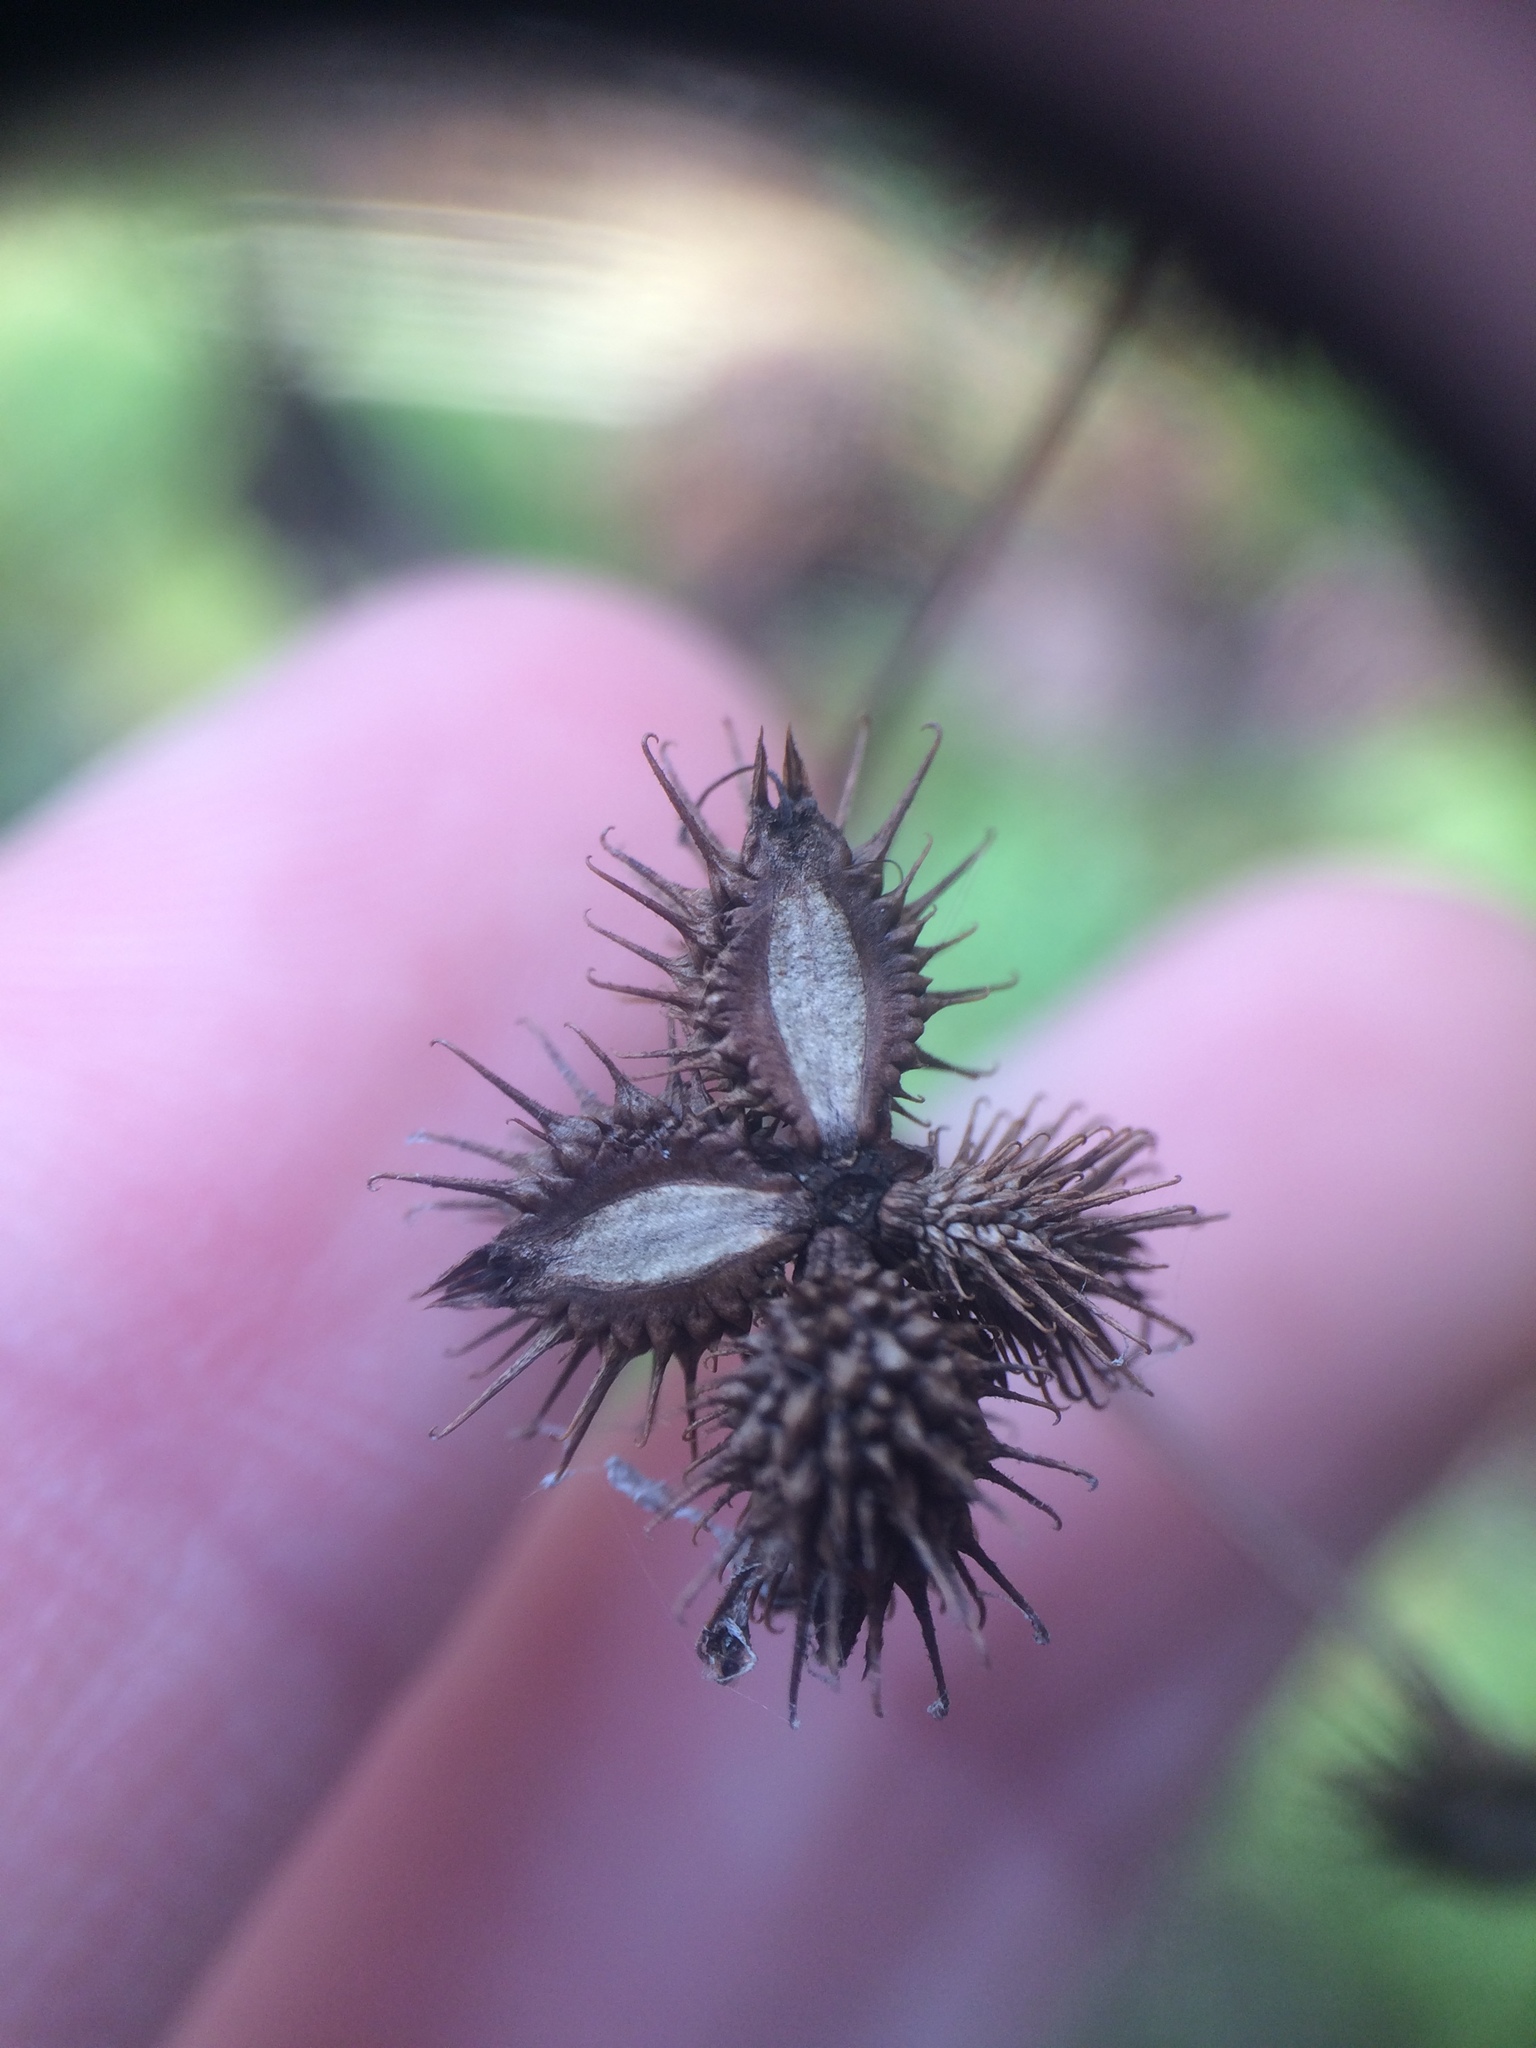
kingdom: Plantae
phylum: Tracheophyta
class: Magnoliopsida
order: Apiales
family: Apiaceae
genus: Sanicula
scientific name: Sanicula marilandica
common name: Black snakeroot
